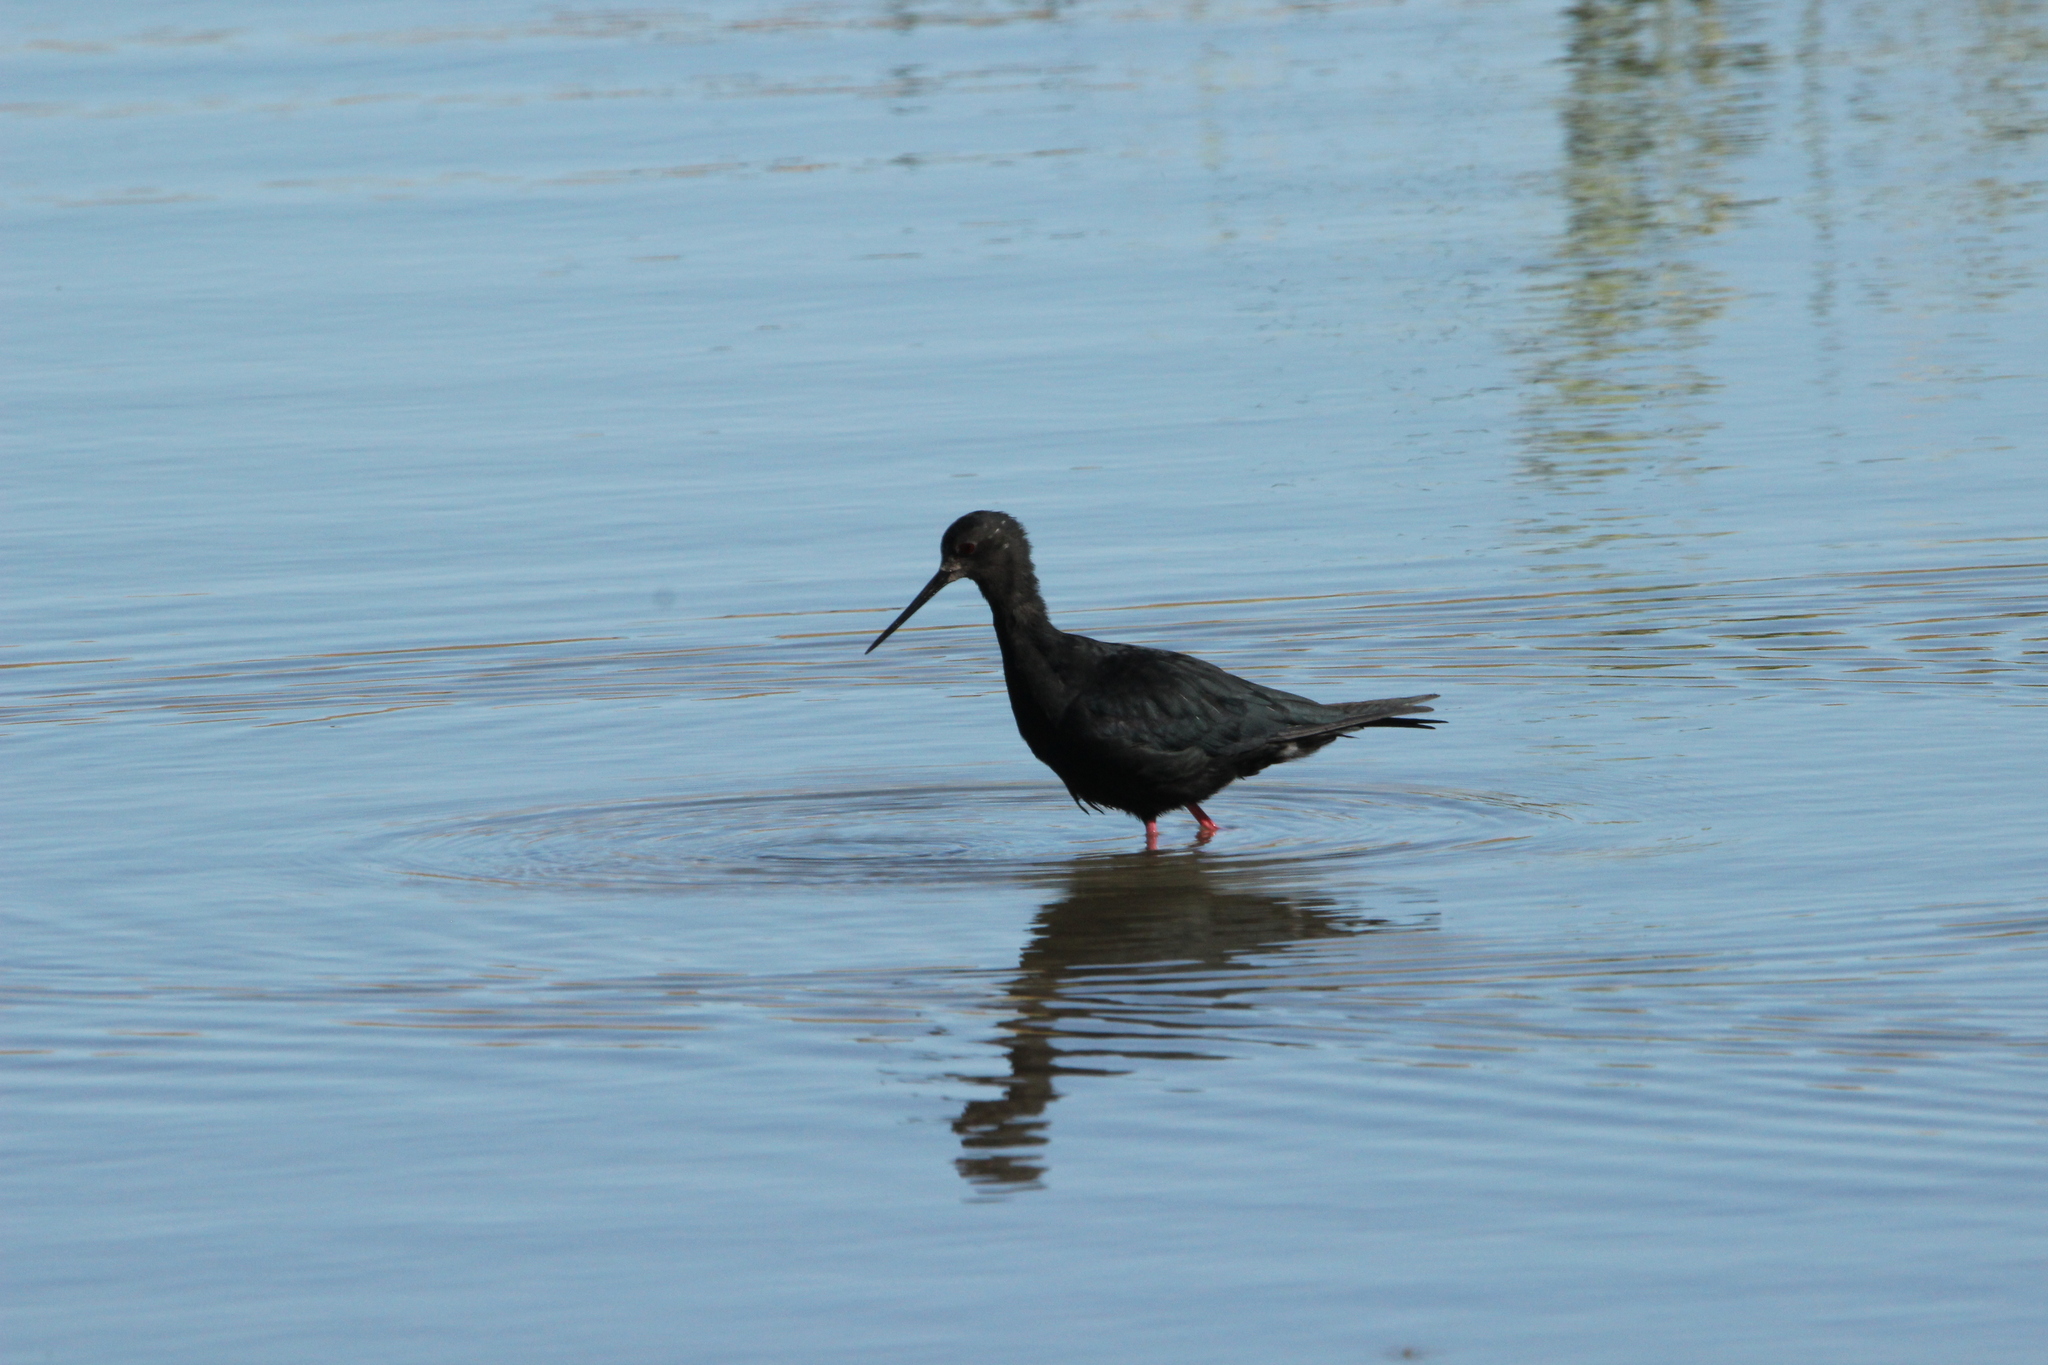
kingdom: Animalia
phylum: Chordata
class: Aves
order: Charadriiformes
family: Recurvirostridae
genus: Himantopus
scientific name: Himantopus novaezelandiae
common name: Black stilt
